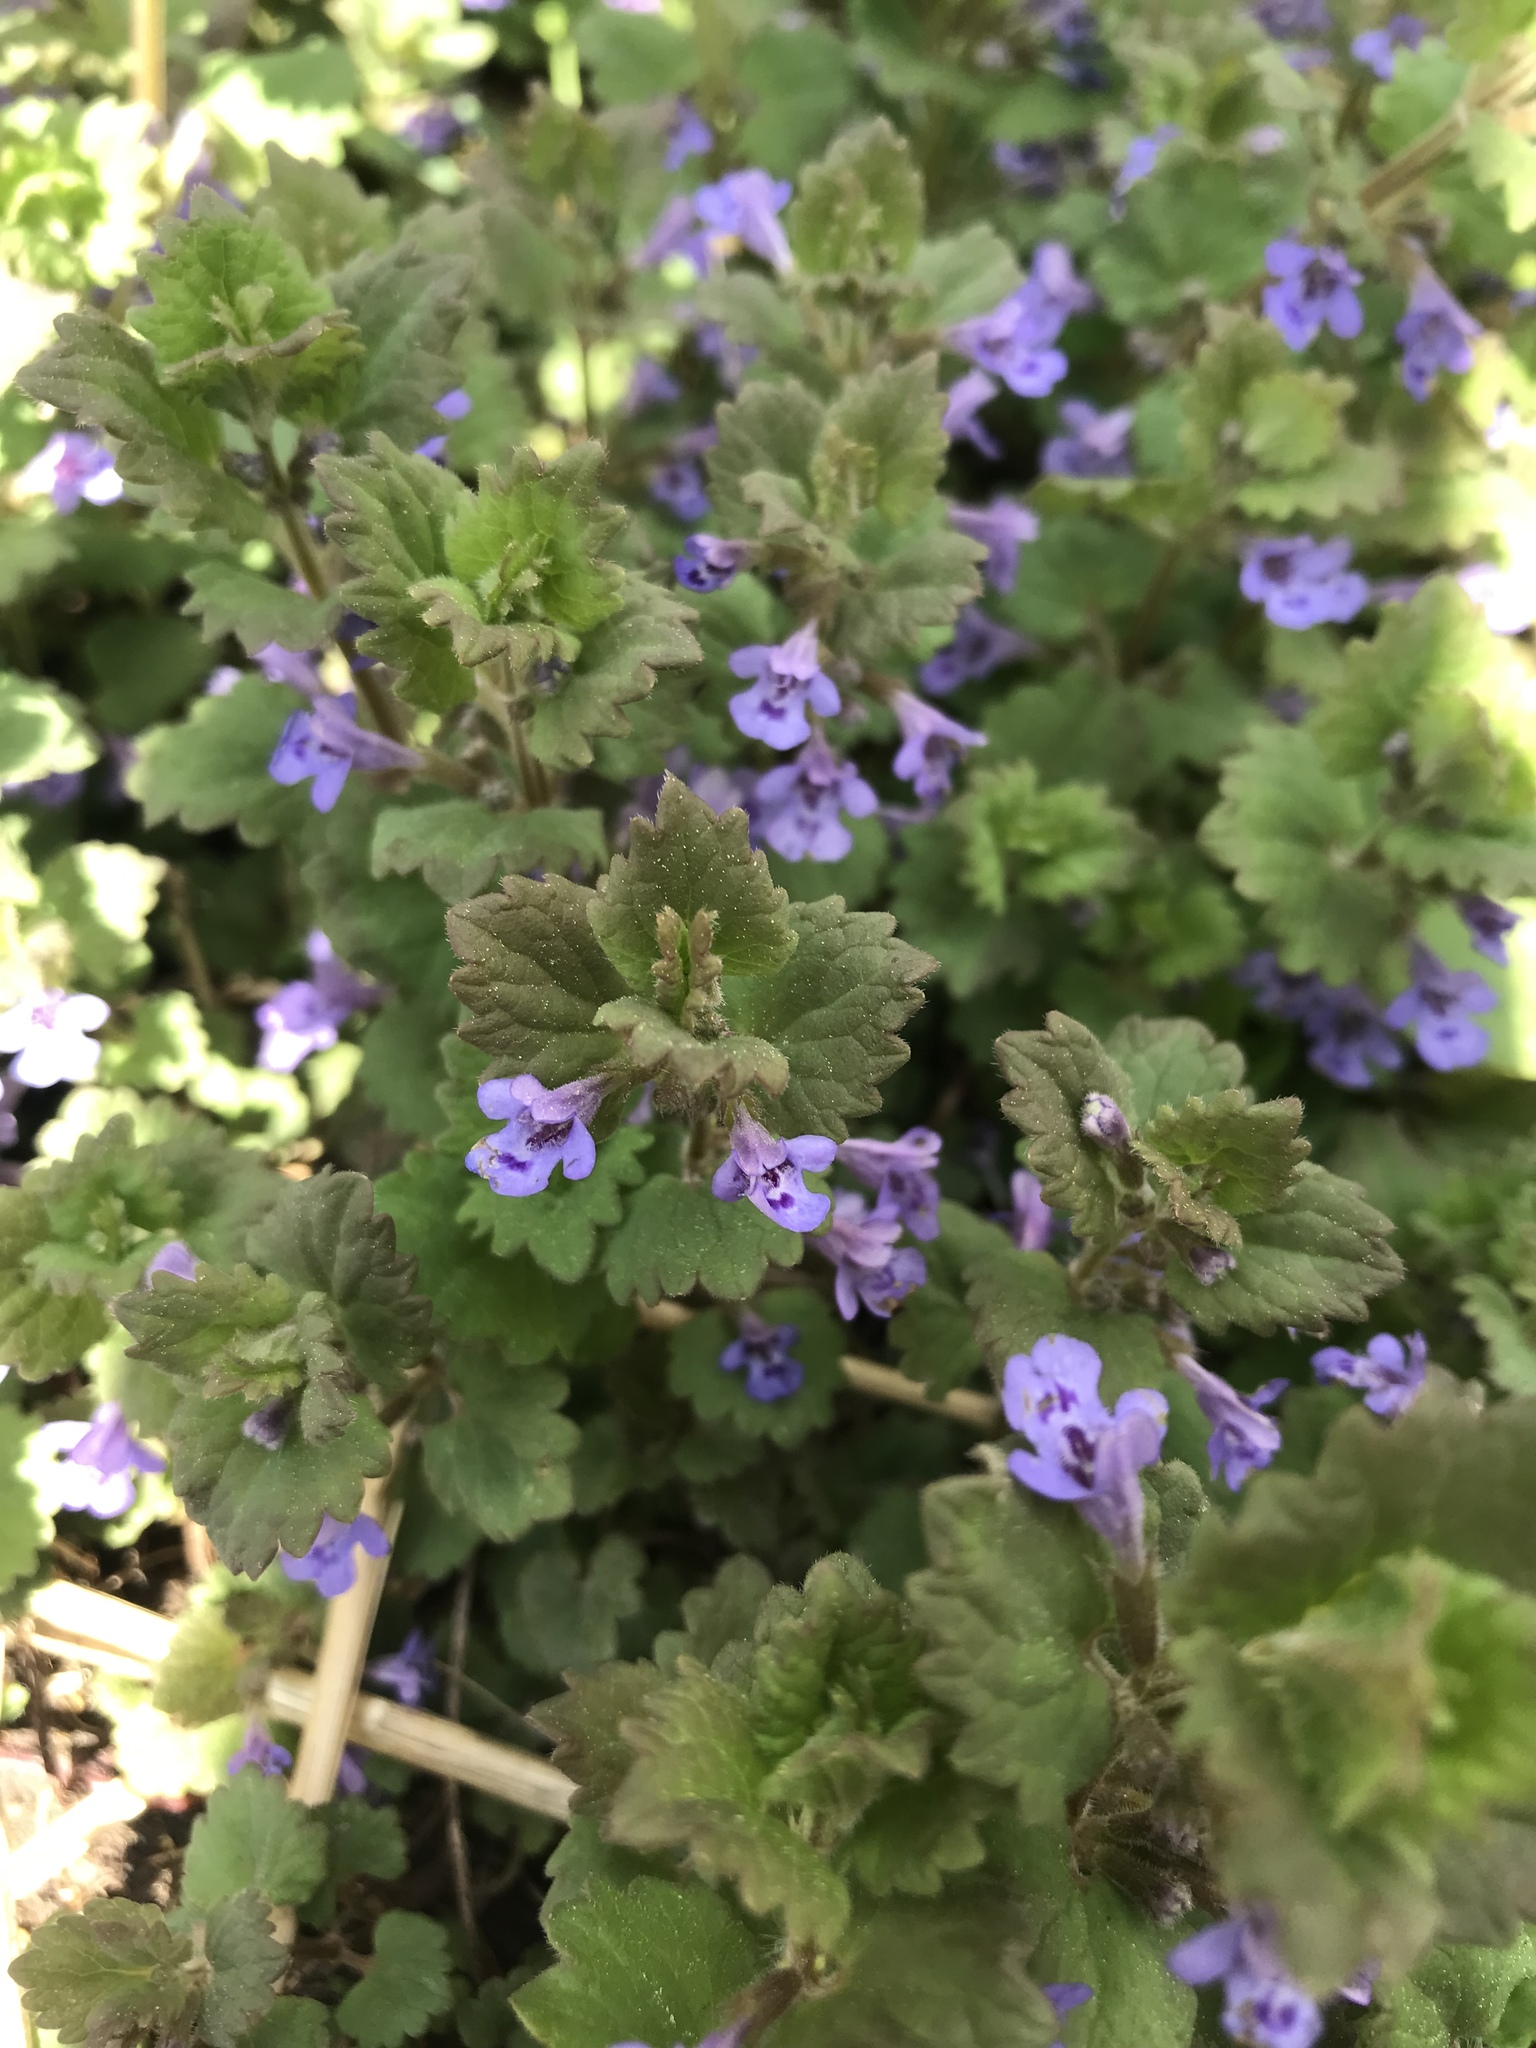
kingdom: Plantae
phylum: Tracheophyta
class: Magnoliopsida
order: Lamiales
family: Lamiaceae
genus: Glechoma
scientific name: Glechoma hederacea
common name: Ground ivy
